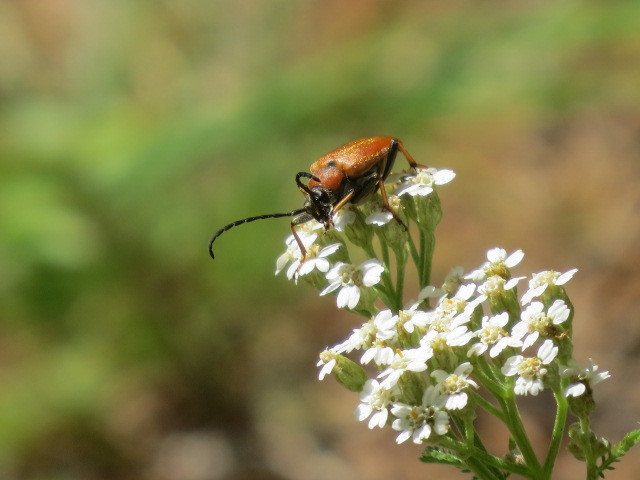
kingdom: Animalia
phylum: Arthropoda
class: Insecta
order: Coleoptera
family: Cerambycidae
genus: Stictoleptura
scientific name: Stictoleptura rubra
